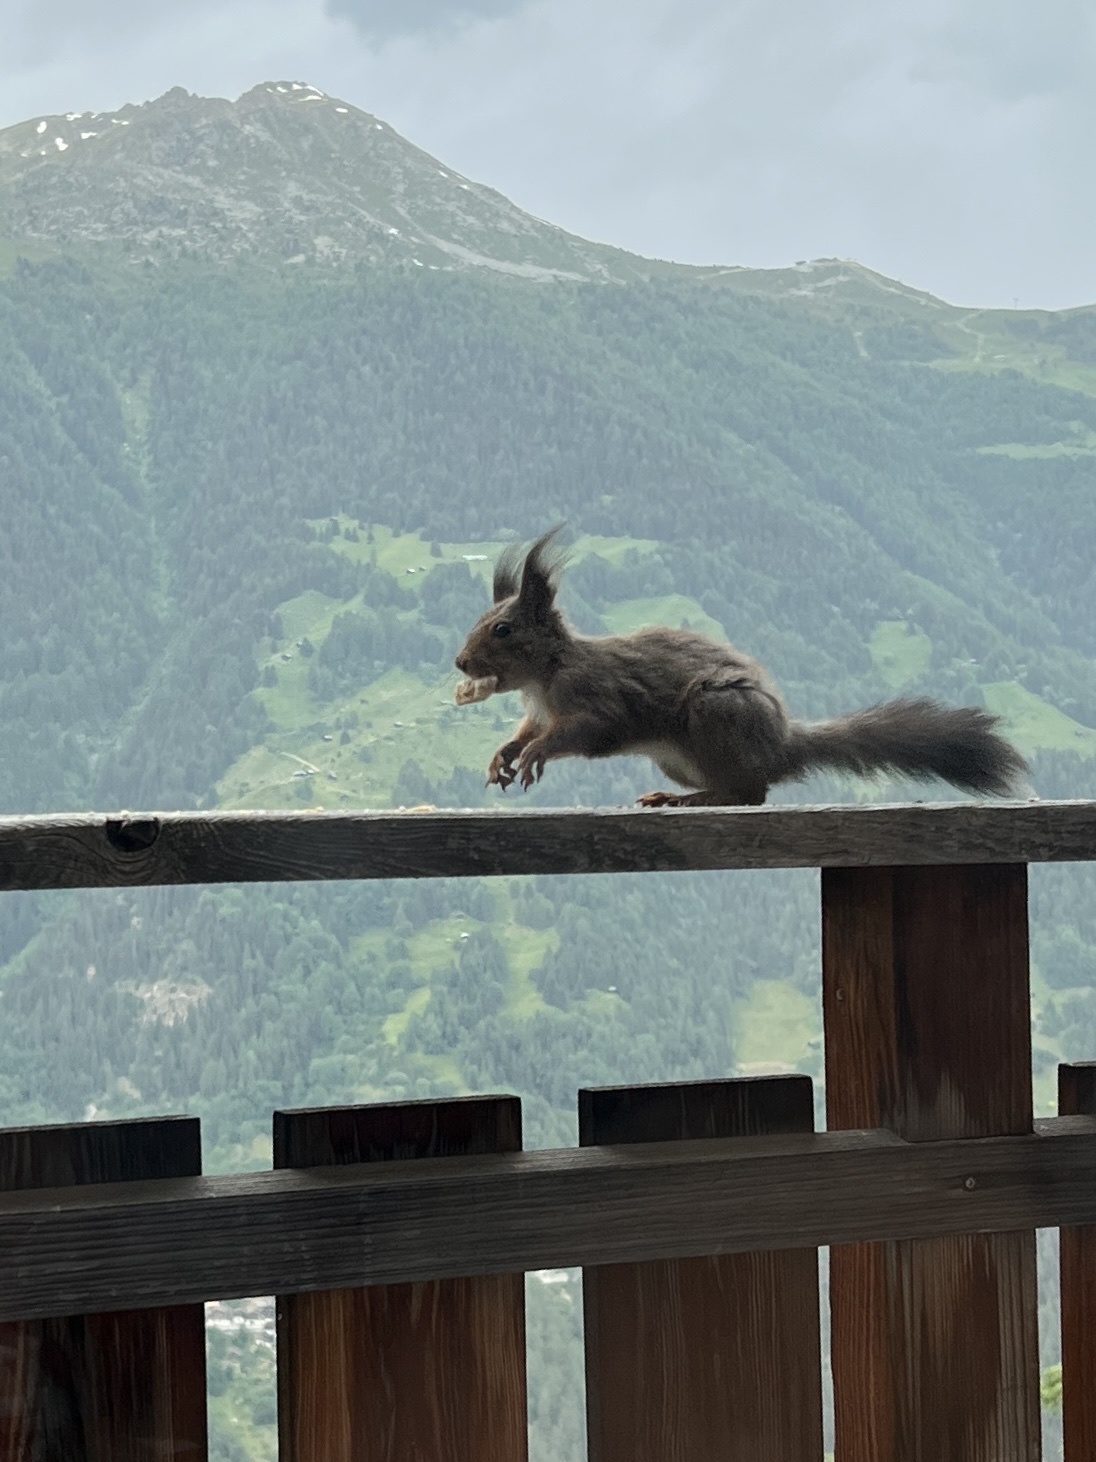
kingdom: Animalia
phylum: Chordata
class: Mammalia
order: Rodentia
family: Sciuridae
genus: Sciurus
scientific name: Sciurus vulgaris
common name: Eurasian red squirrel
